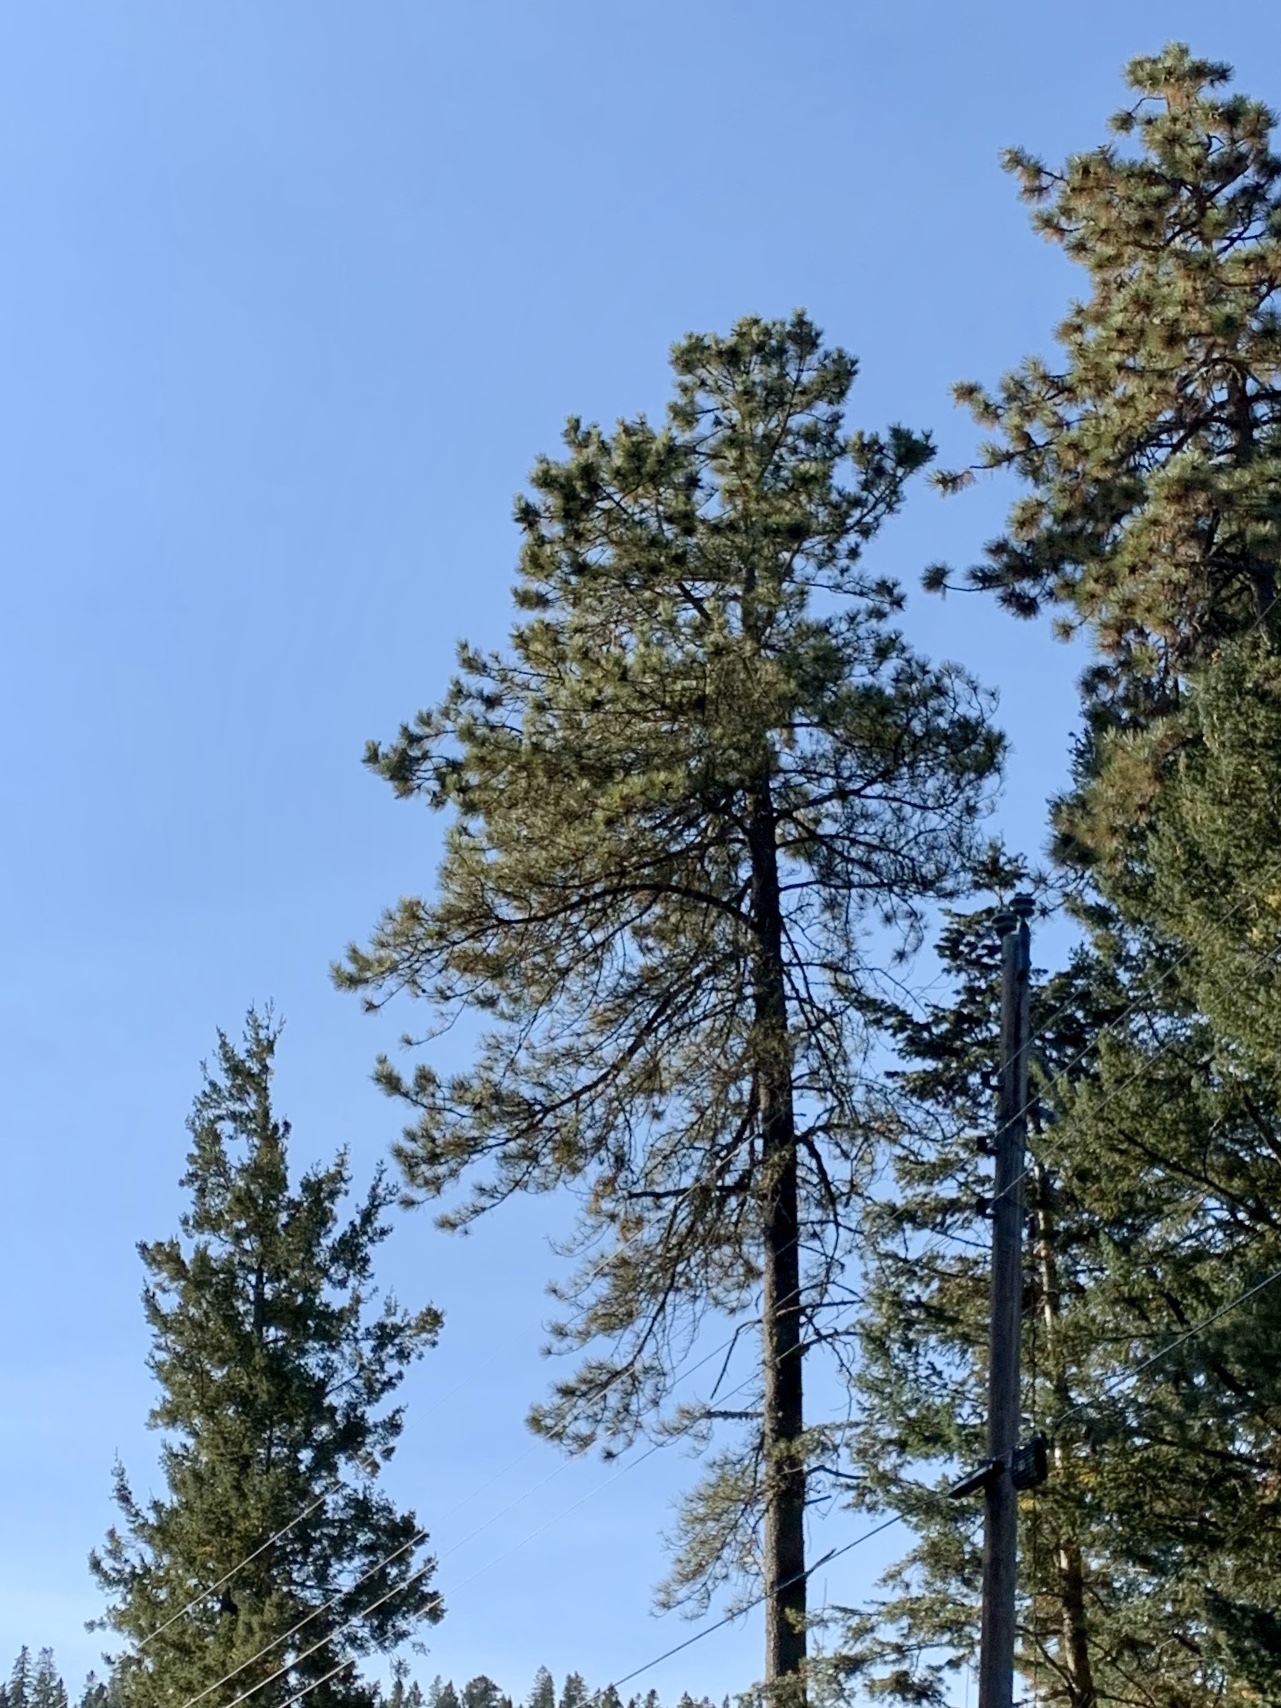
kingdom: Plantae
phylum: Tracheophyta
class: Pinopsida
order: Pinales
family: Pinaceae
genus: Pinus
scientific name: Pinus ponderosa
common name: Western yellow-pine
